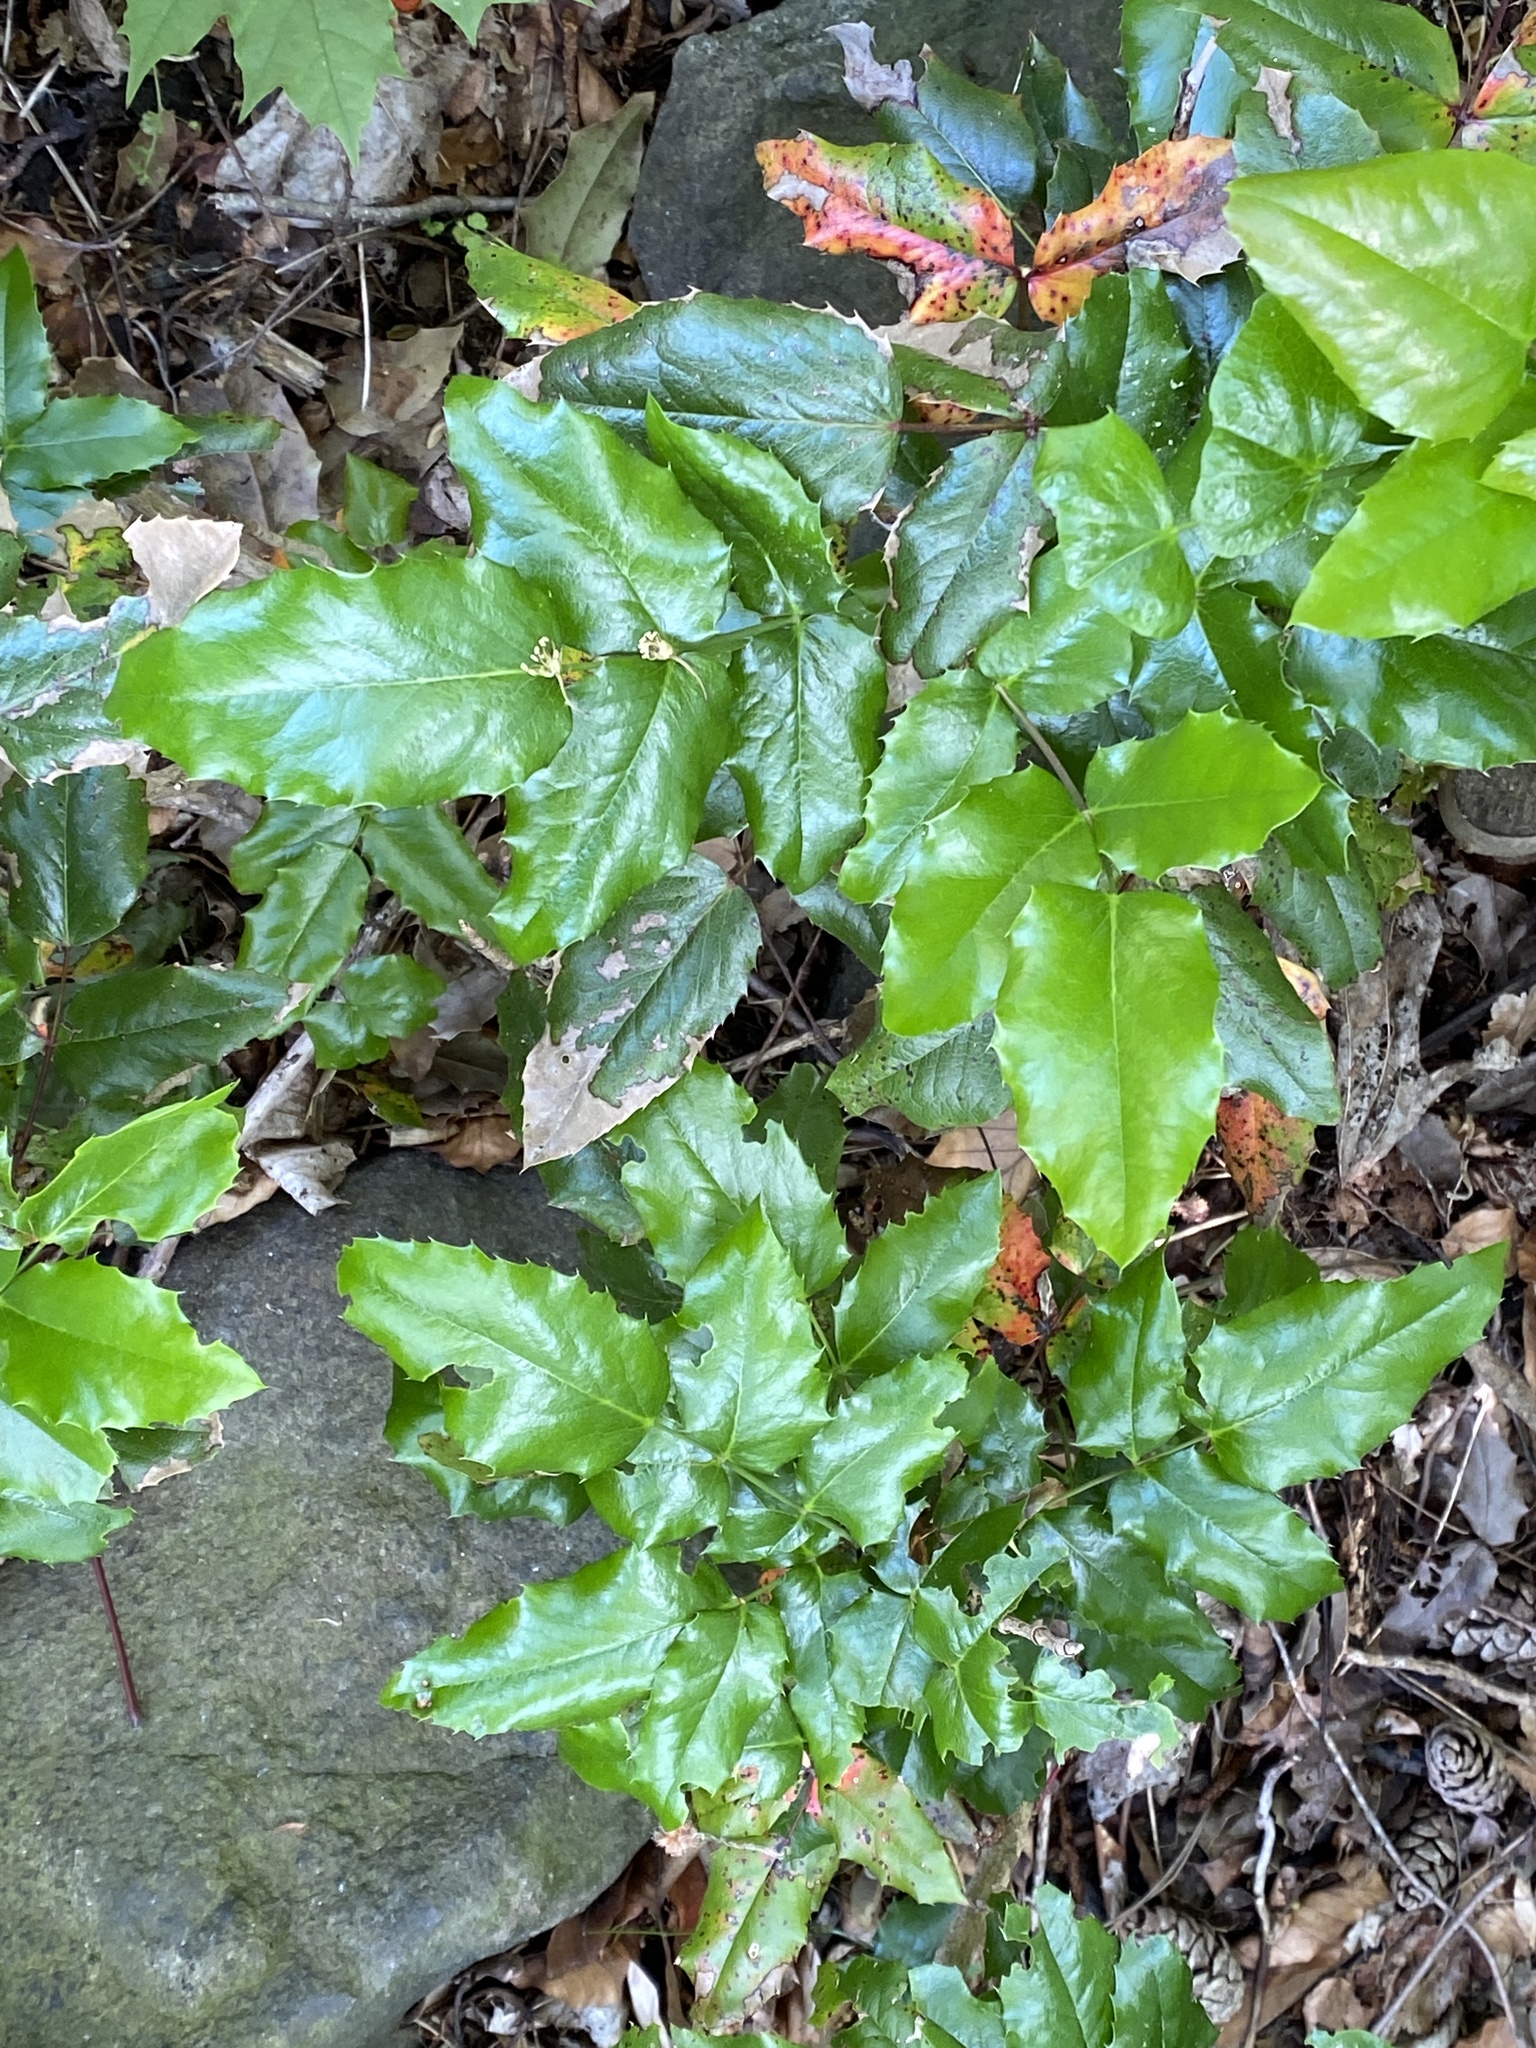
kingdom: Plantae
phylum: Tracheophyta
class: Magnoliopsida
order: Ranunculales
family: Berberidaceae
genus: Mahonia
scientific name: Mahonia aquifolium
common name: Oregon-grape
